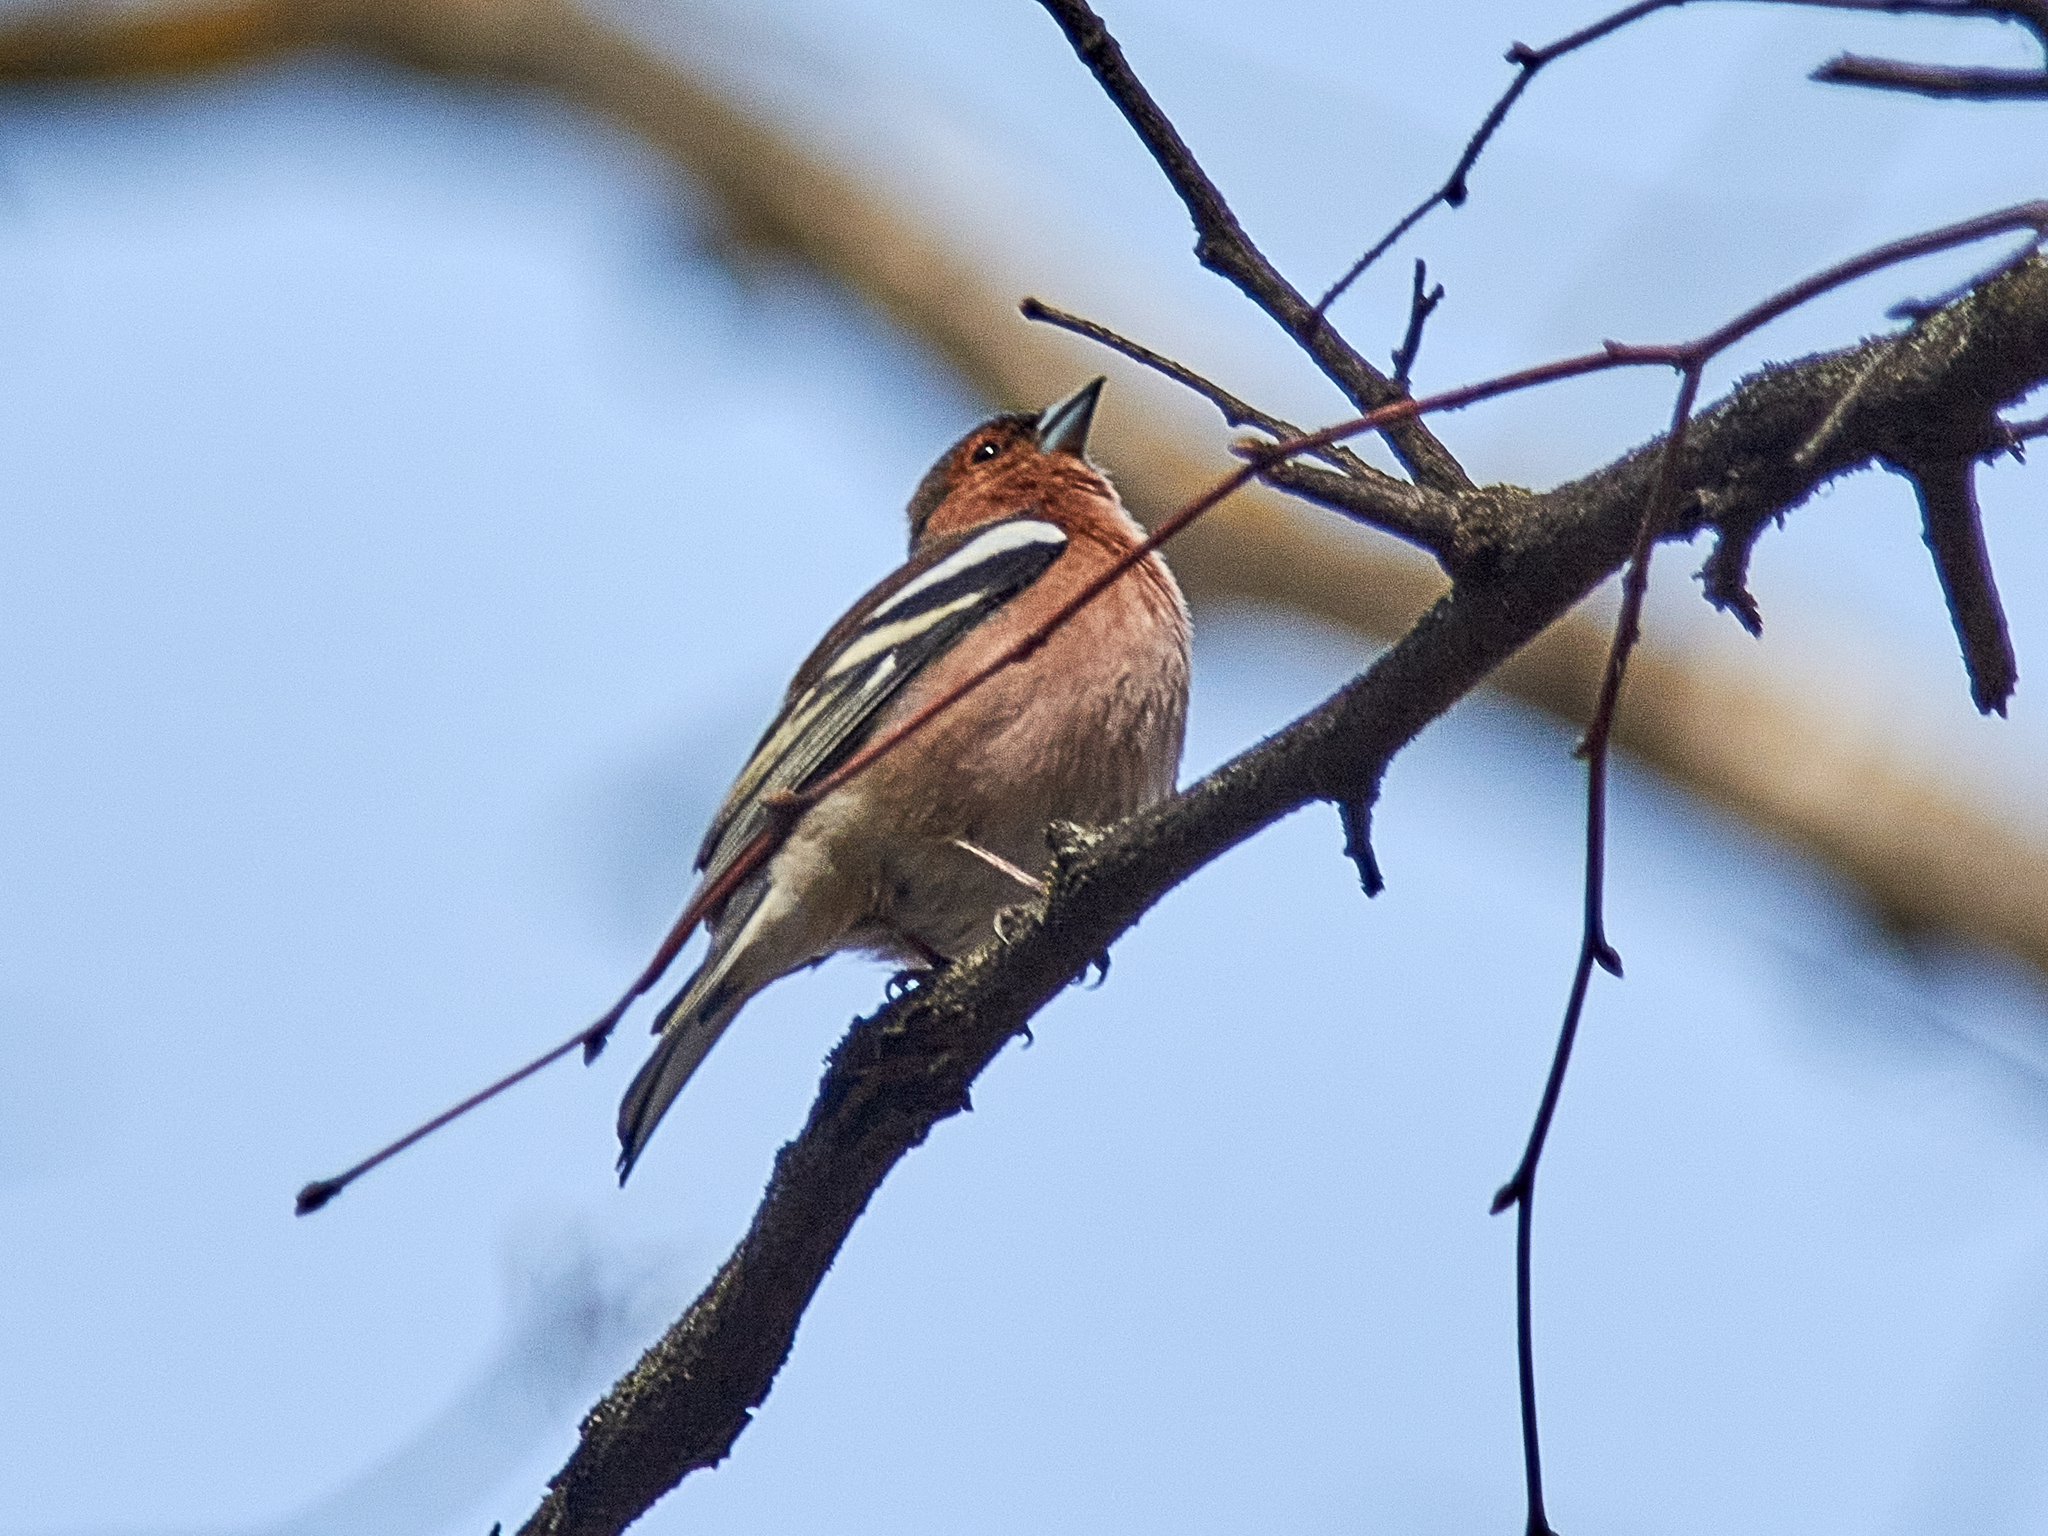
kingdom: Animalia
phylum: Chordata
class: Aves
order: Passeriformes
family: Fringillidae
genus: Fringilla
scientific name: Fringilla coelebs
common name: Common chaffinch
